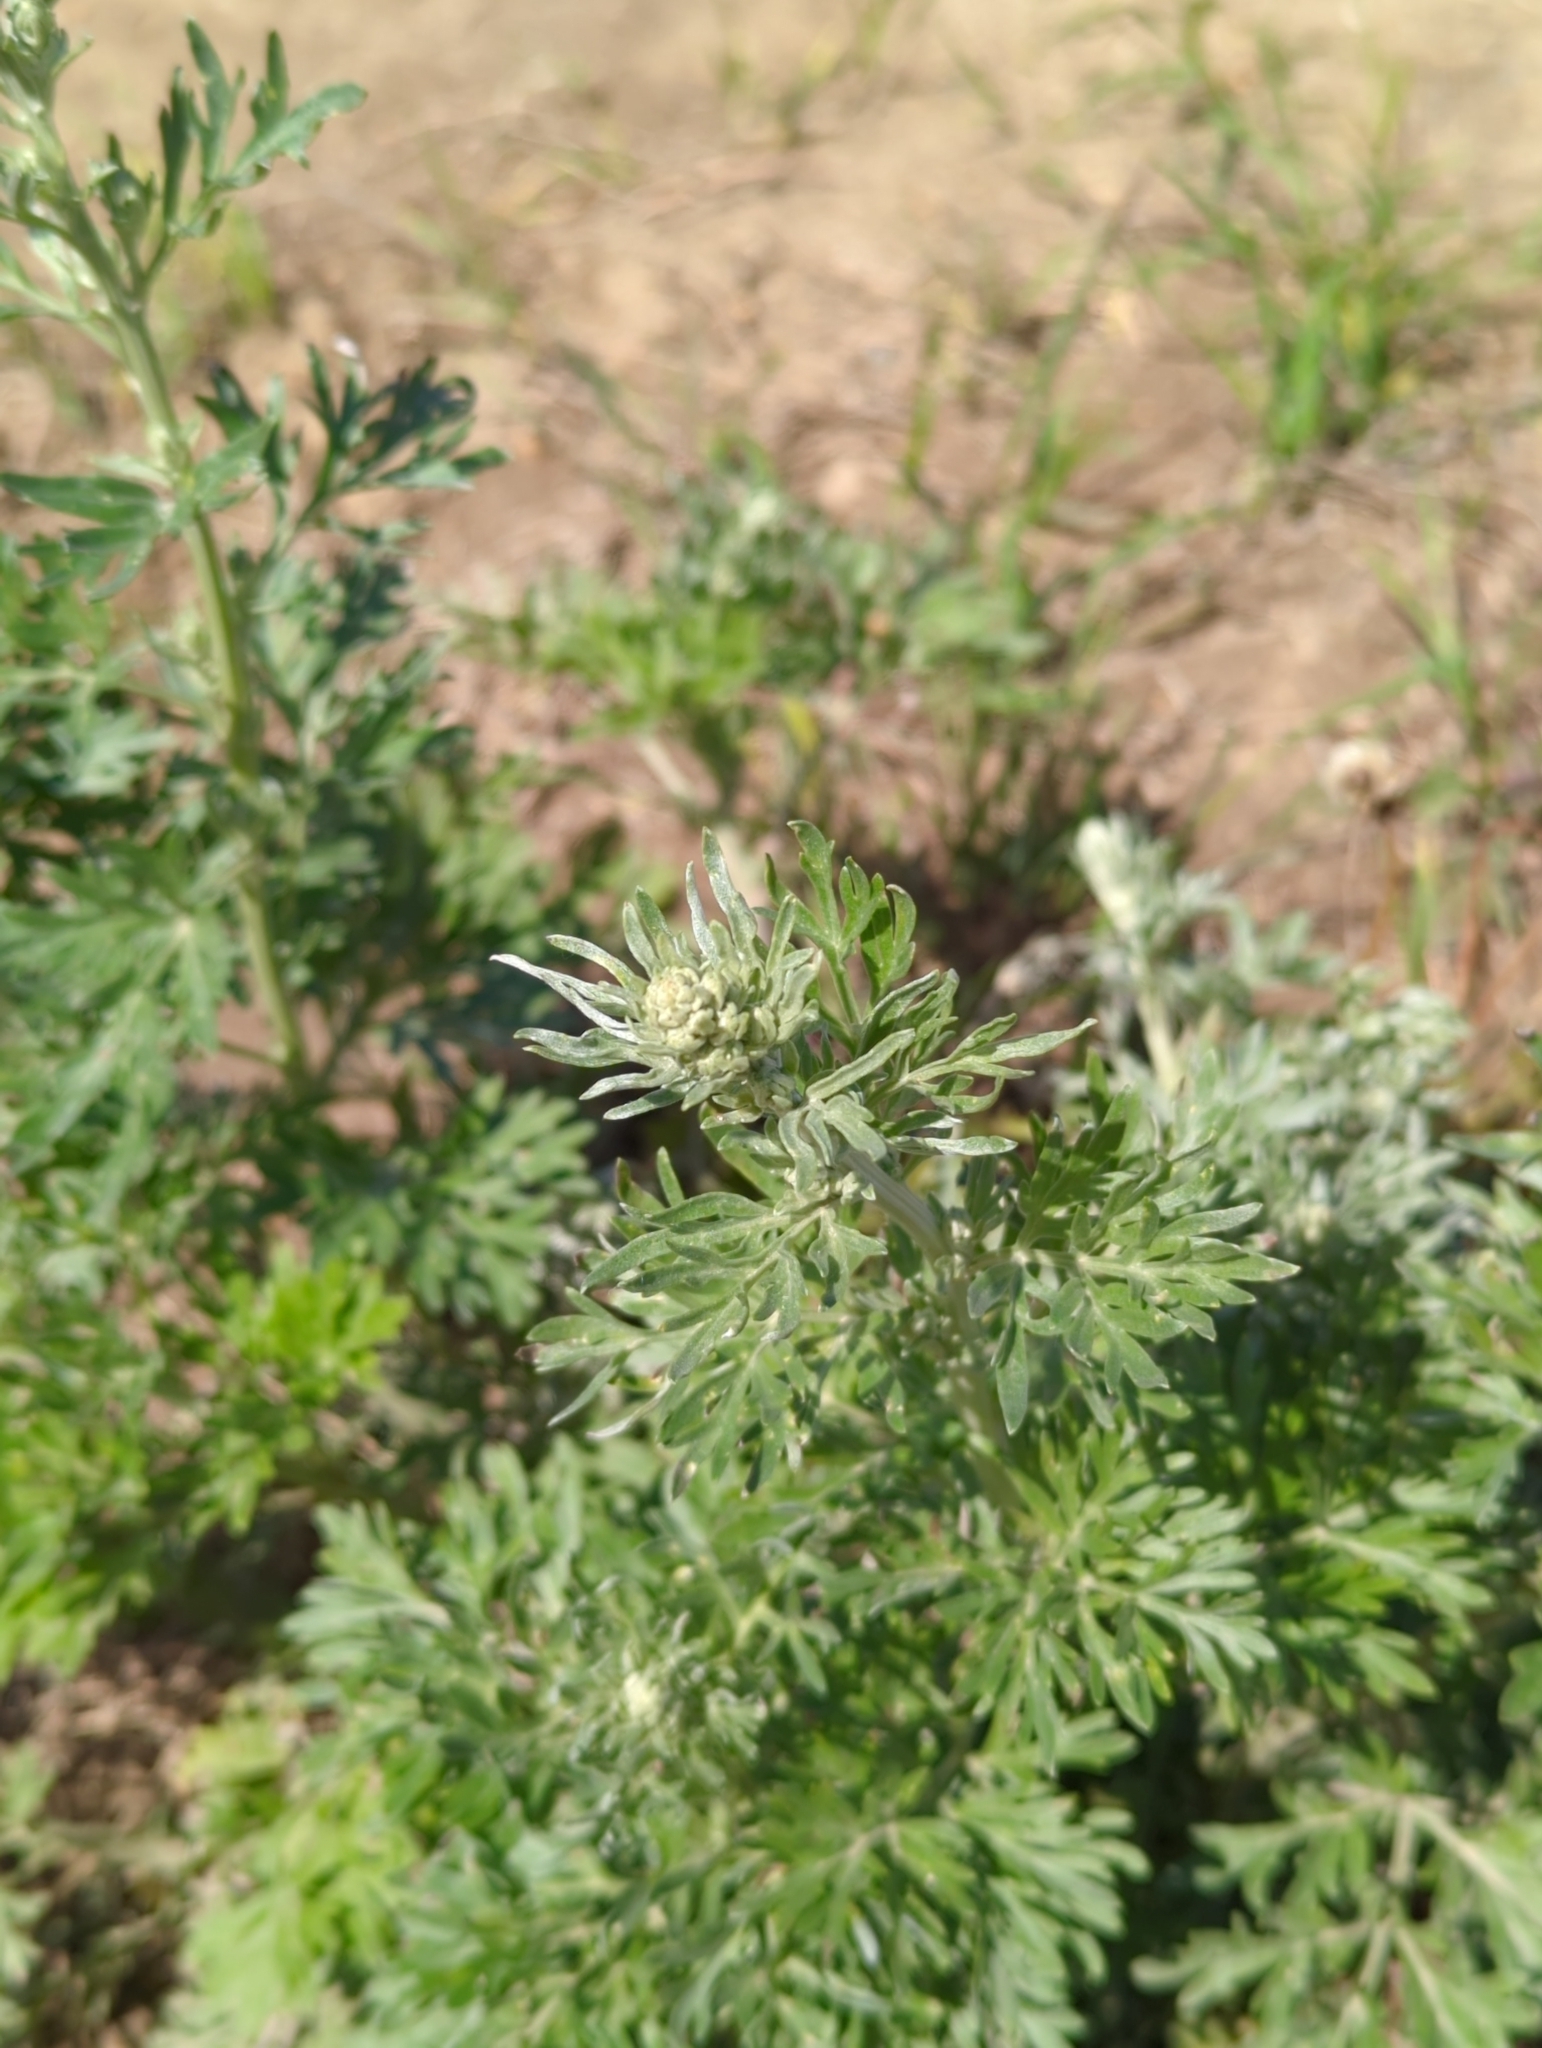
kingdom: Plantae
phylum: Tracheophyta
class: Magnoliopsida
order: Asterales
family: Asteraceae
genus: Artemisia
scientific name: Artemisia absinthium
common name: Wormwood
